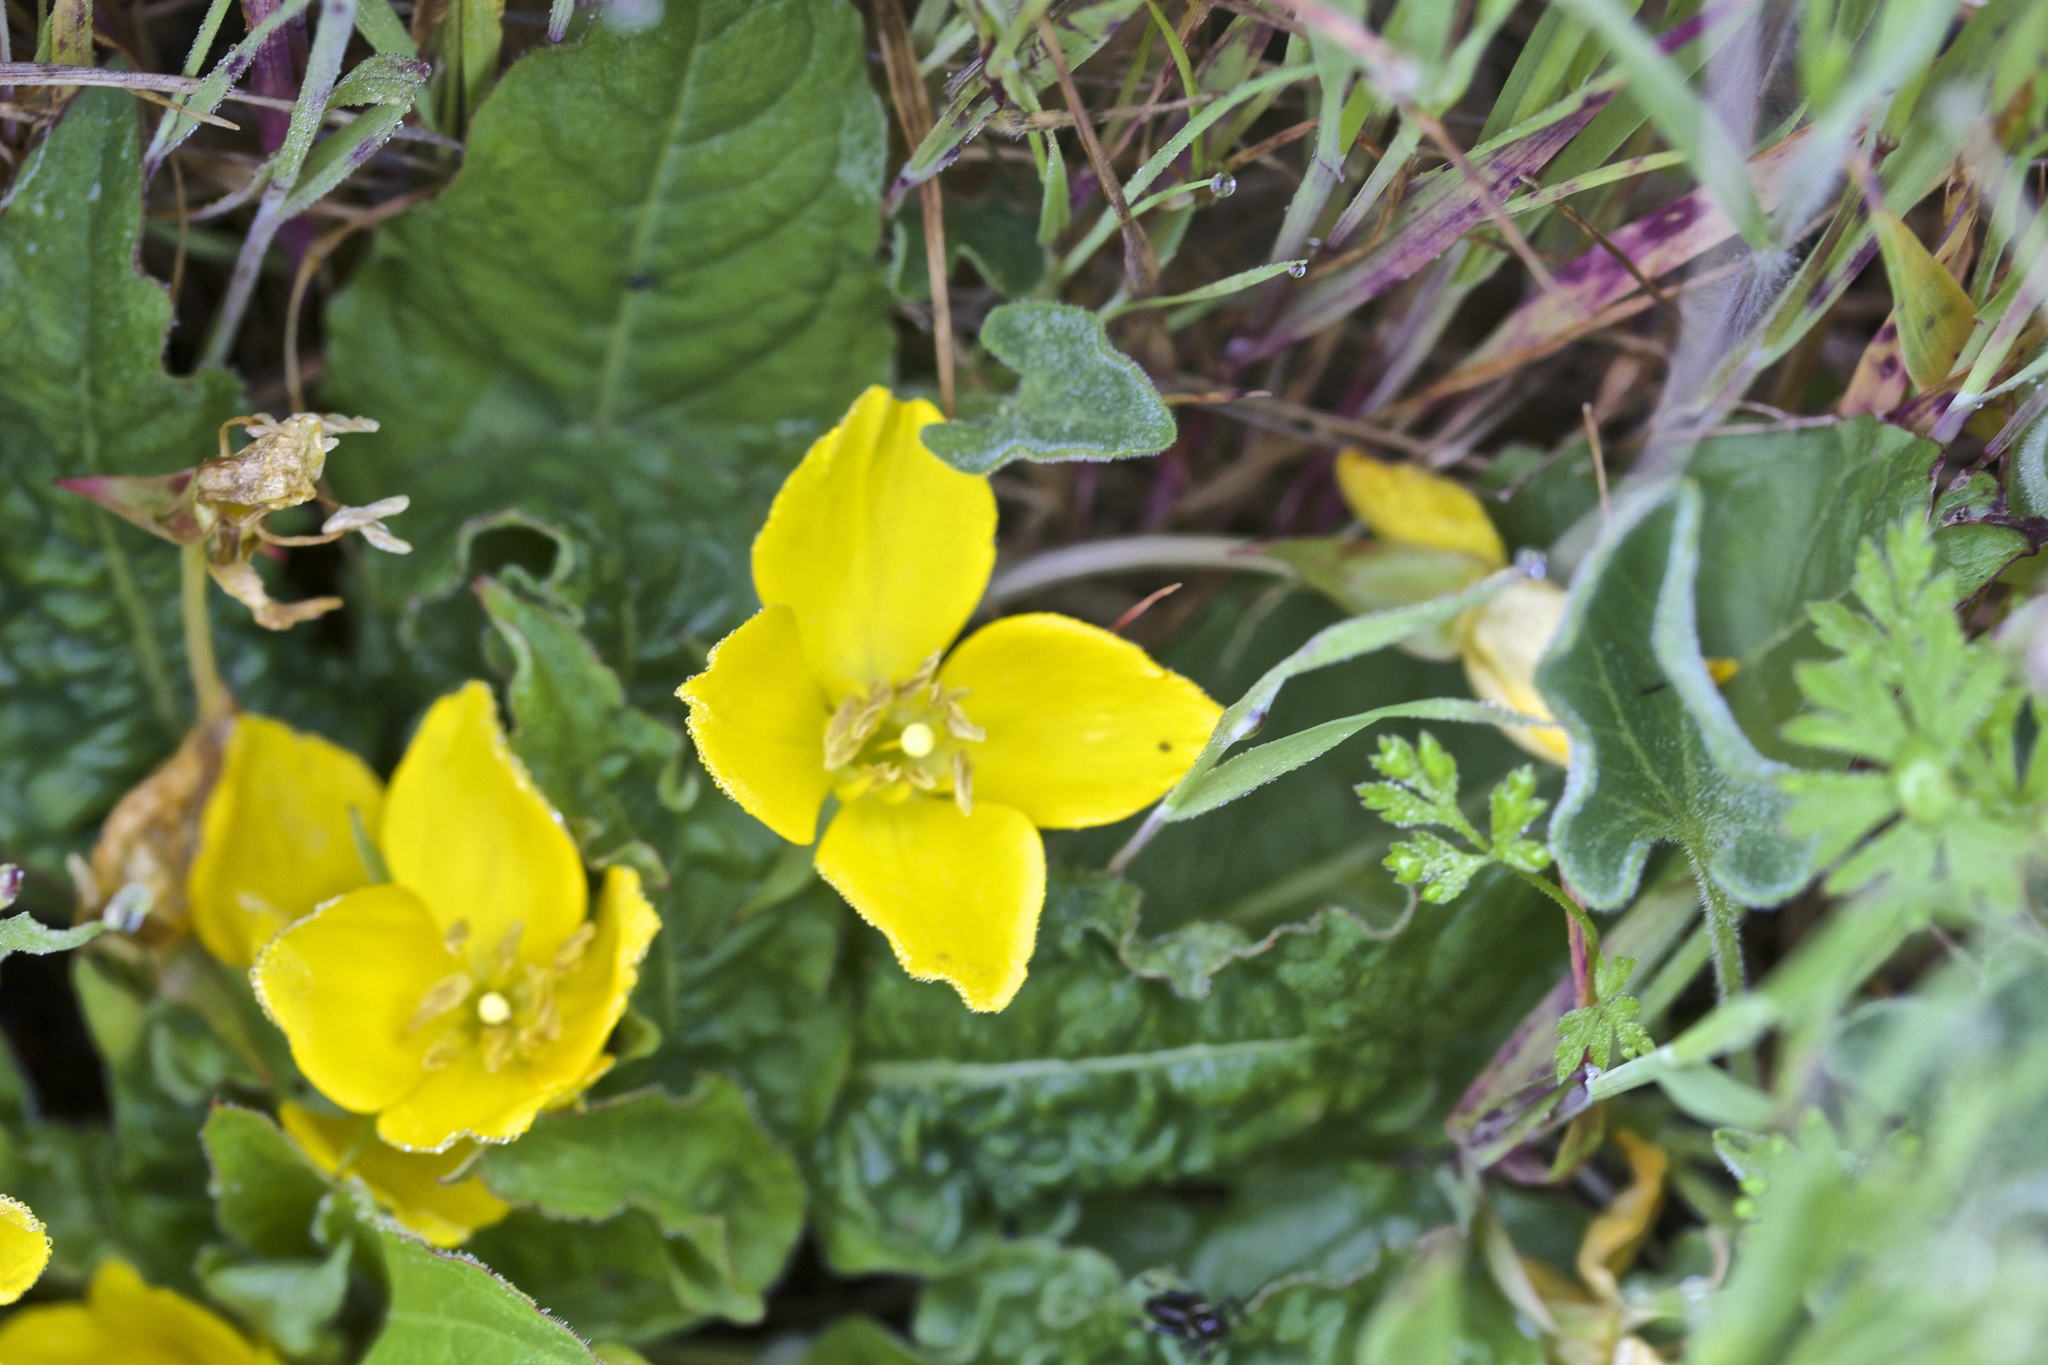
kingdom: Plantae
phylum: Tracheophyta
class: Magnoliopsida
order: Myrtales
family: Onagraceae
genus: Taraxia
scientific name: Taraxia ovata
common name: Goldeneggs
